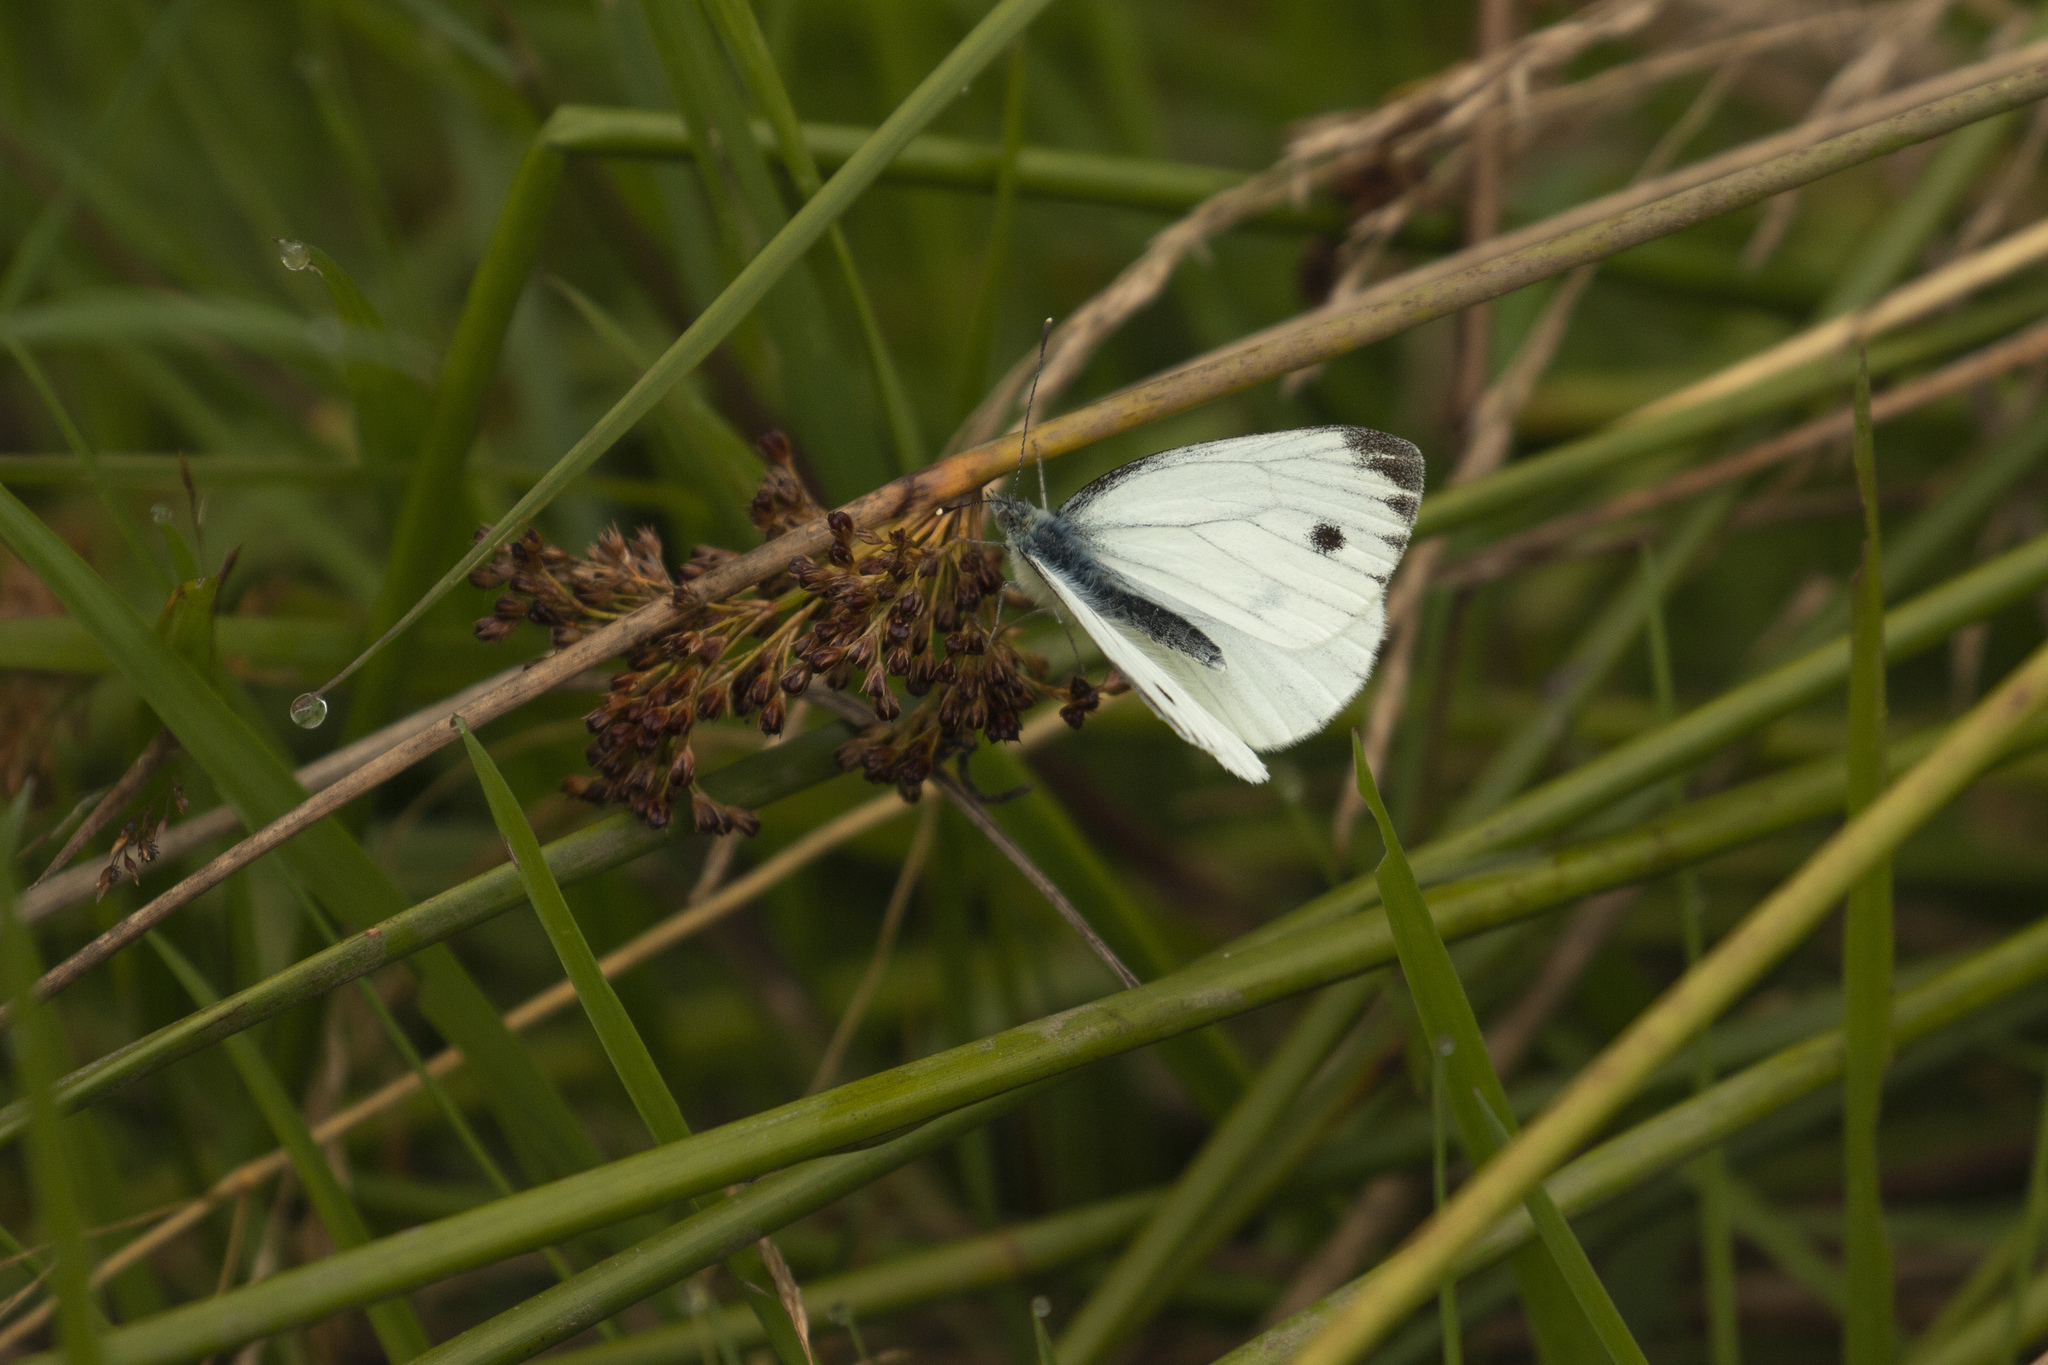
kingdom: Animalia
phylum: Arthropoda
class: Insecta
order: Lepidoptera
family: Pieridae
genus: Pieris
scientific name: Pieris napi
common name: Green-veined white
